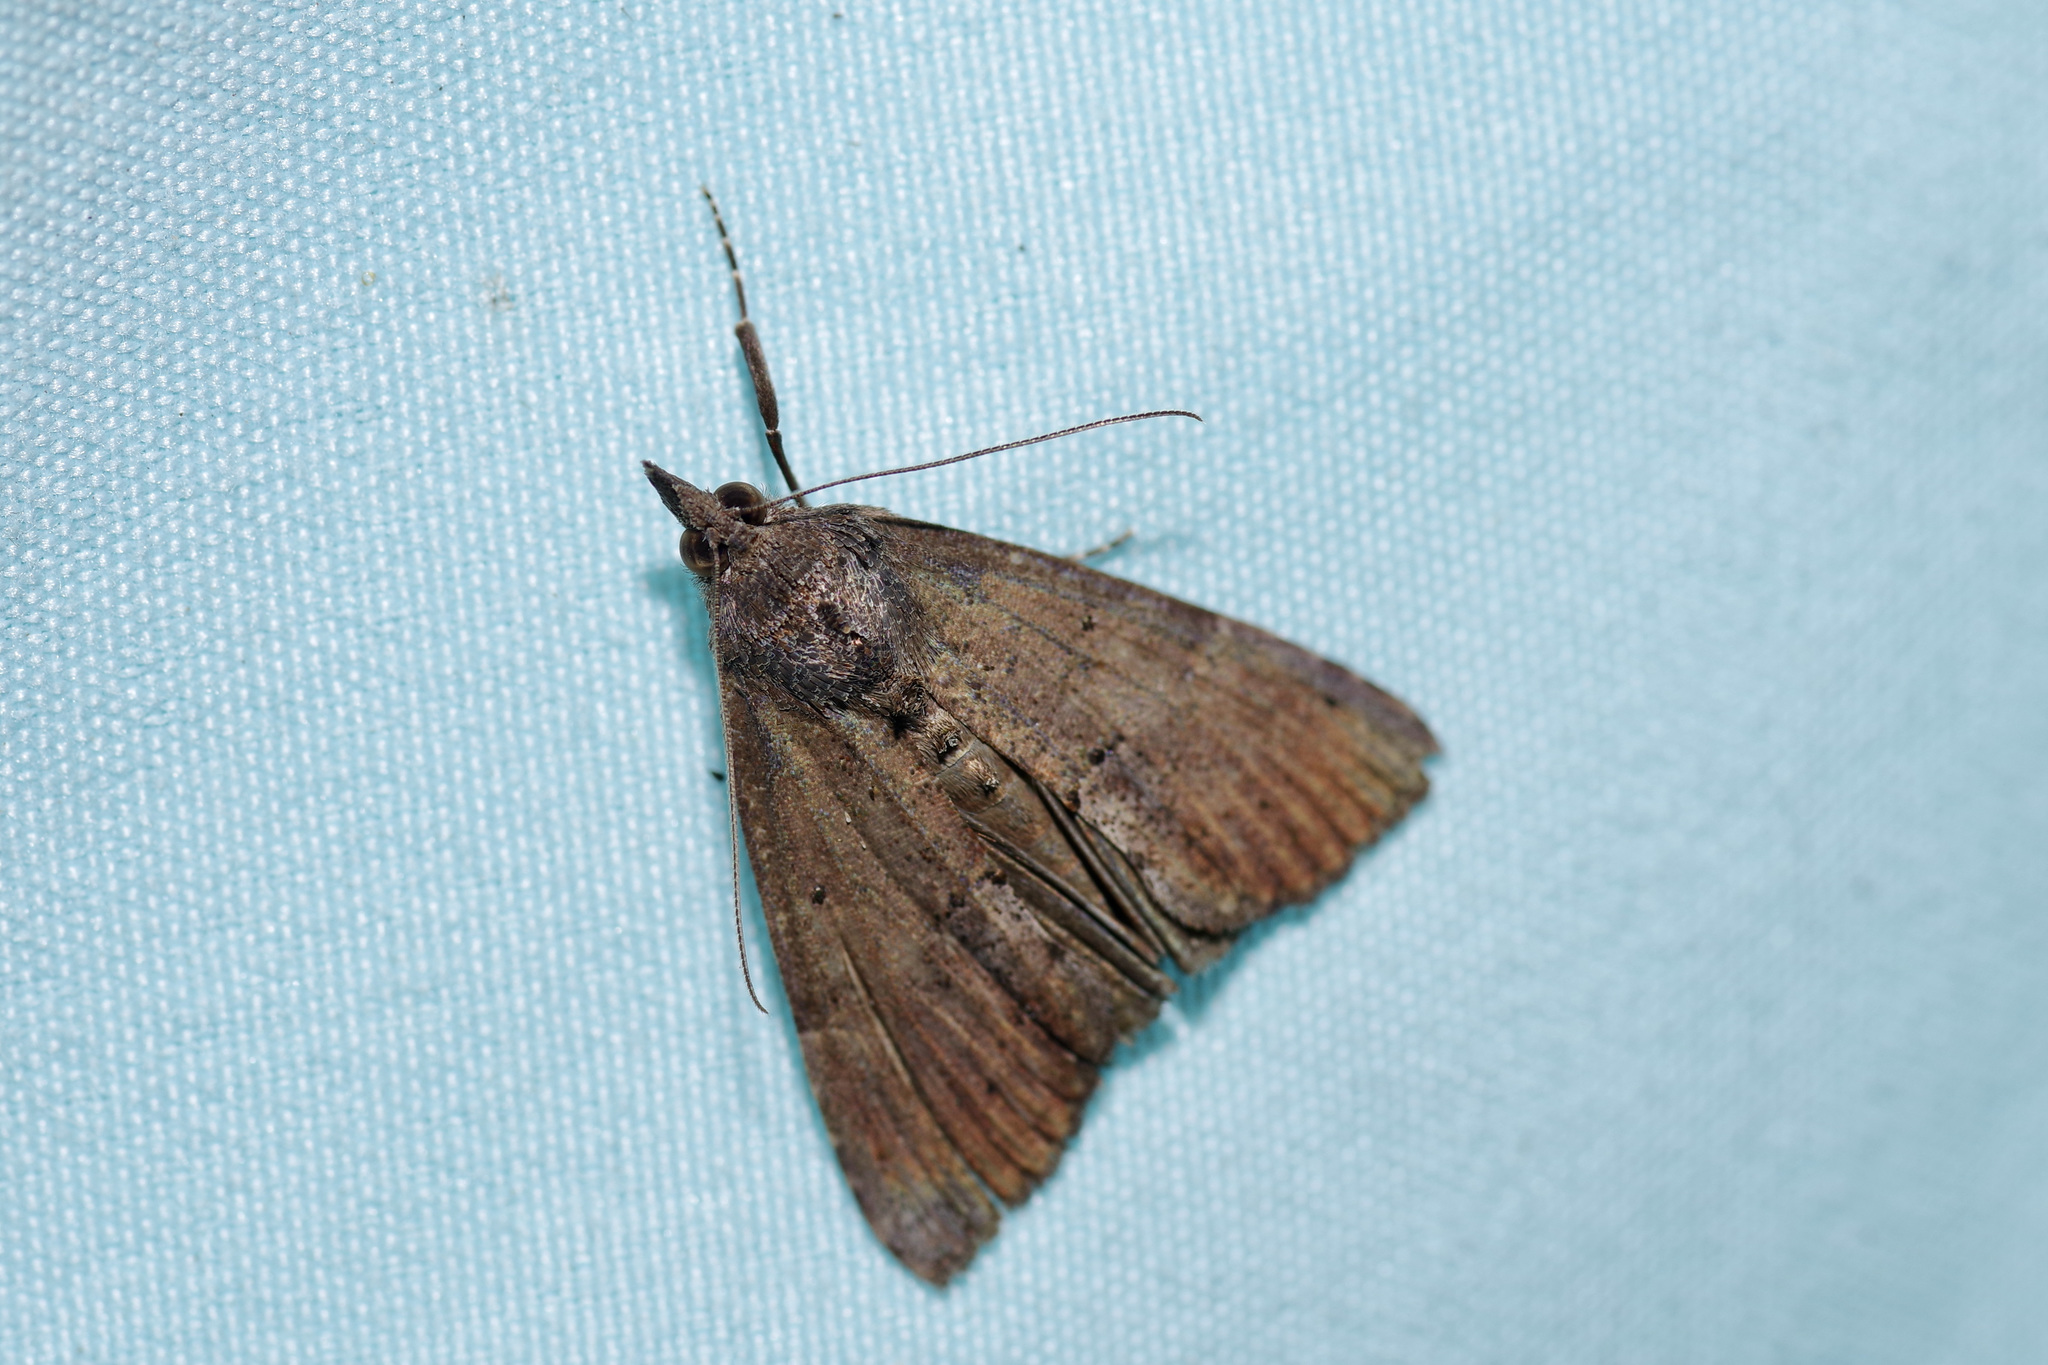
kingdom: Animalia
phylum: Arthropoda
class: Insecta
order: Lepidoptera
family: Erebidae
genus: Hypena
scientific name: Hypena scabra
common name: Green cloverworm
